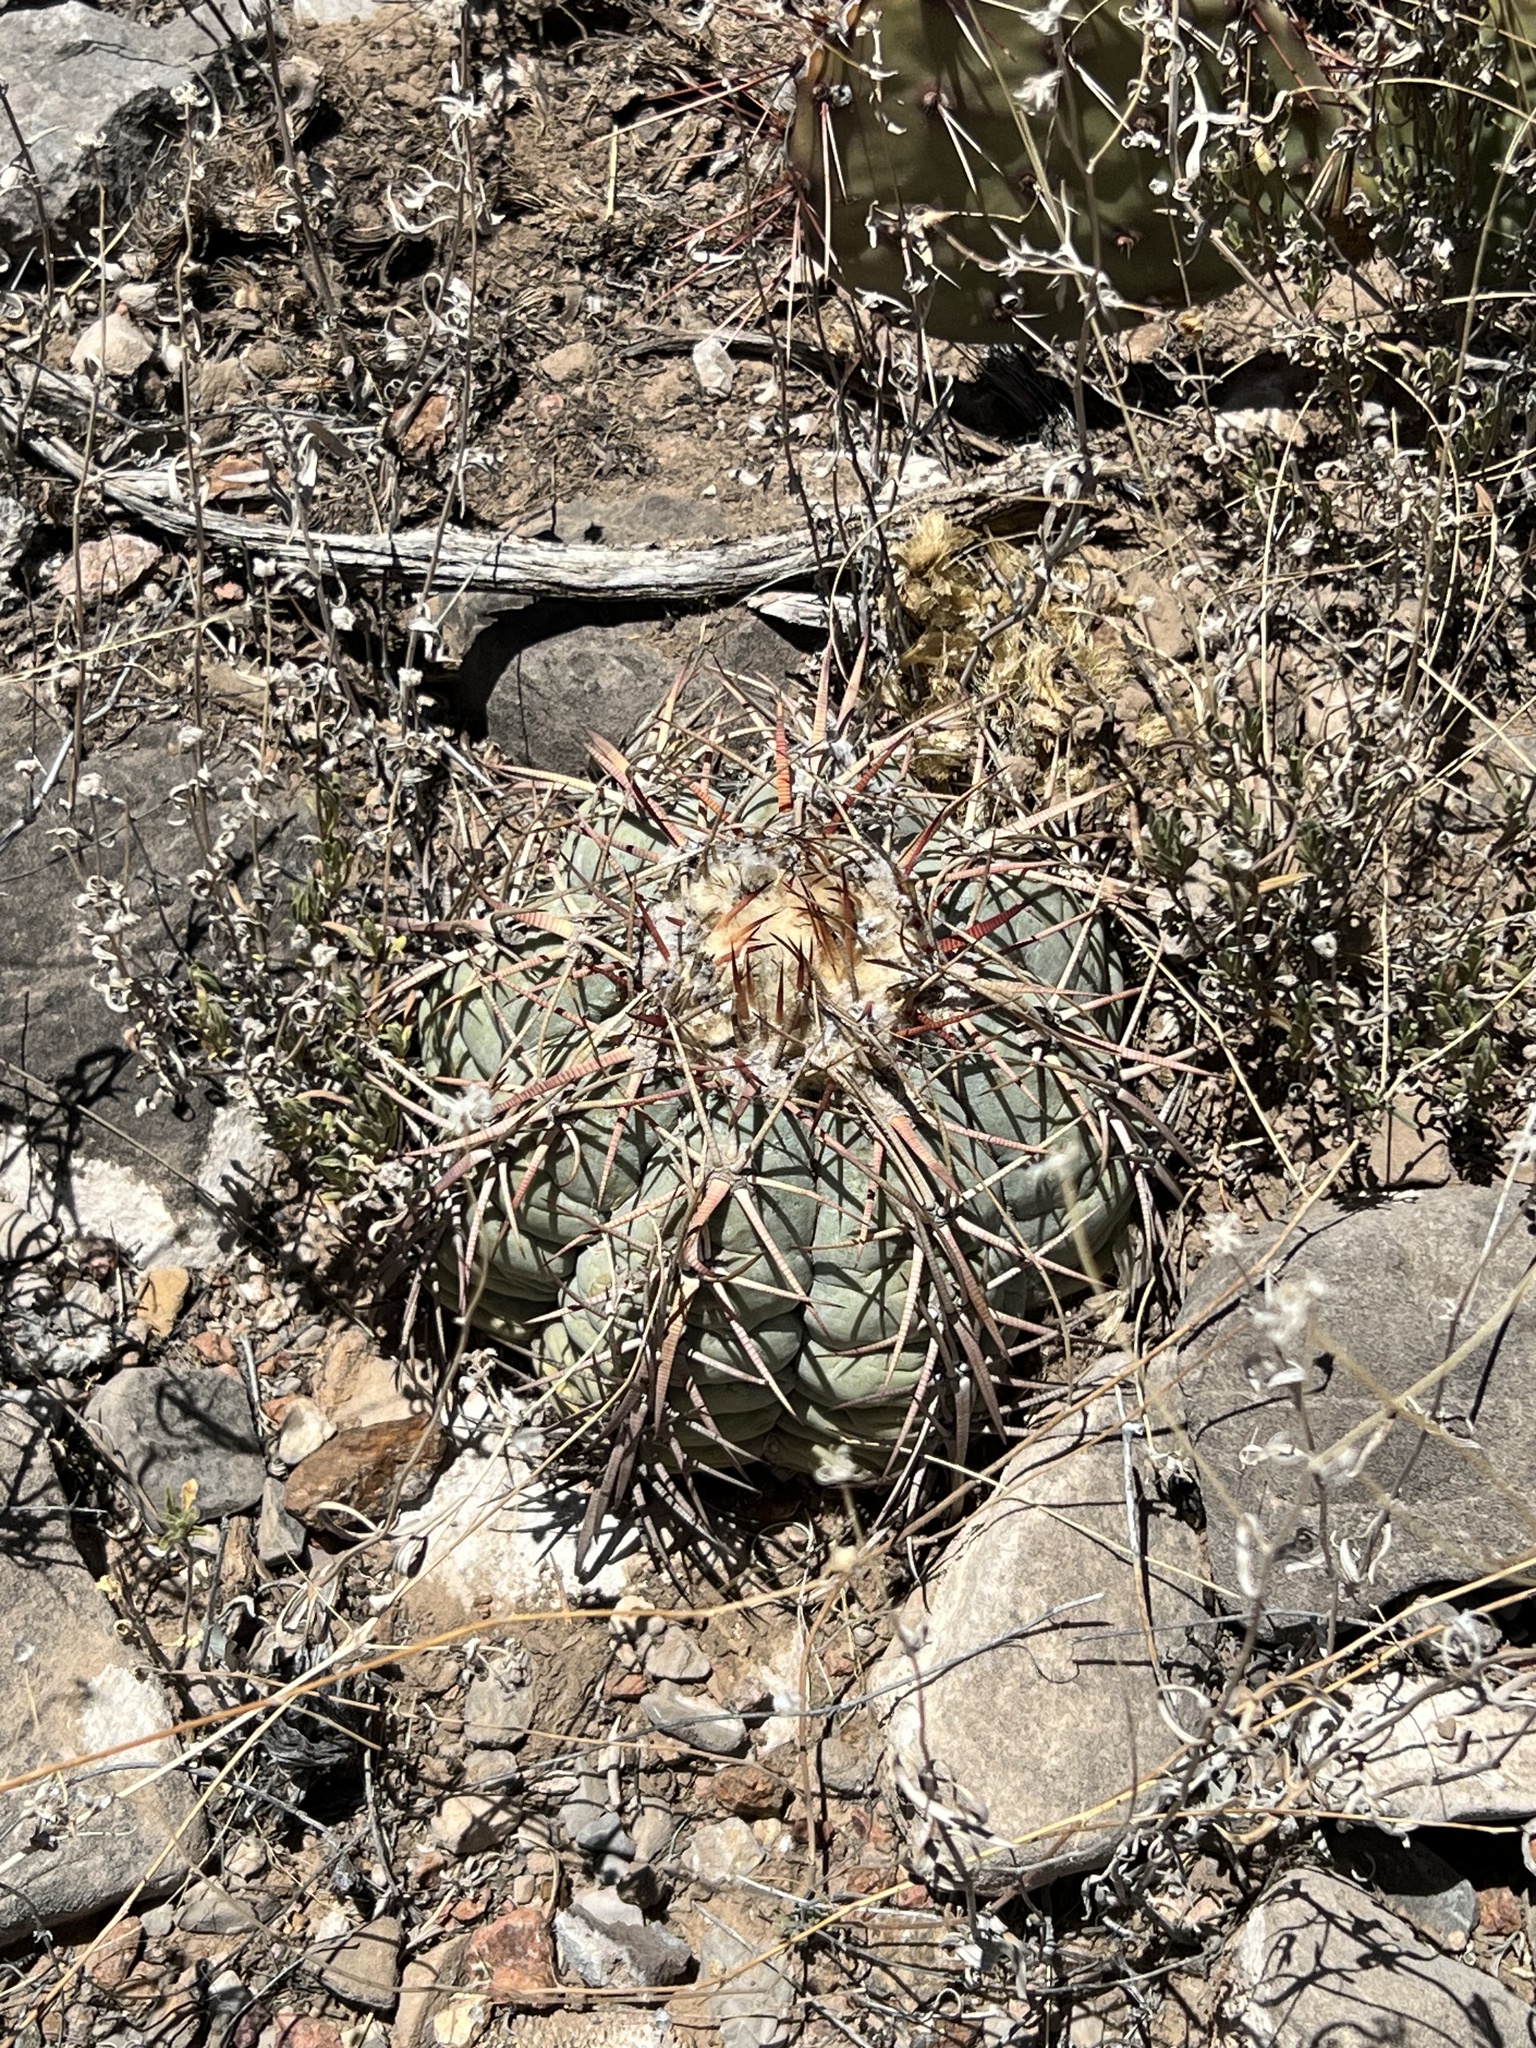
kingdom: Plantae
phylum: Tracheophyta
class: Magnoliopsida
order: Caryophyllales
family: Cactaceae
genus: Echinocactus
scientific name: Echinocactus horizonthalonius
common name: Devilshead
